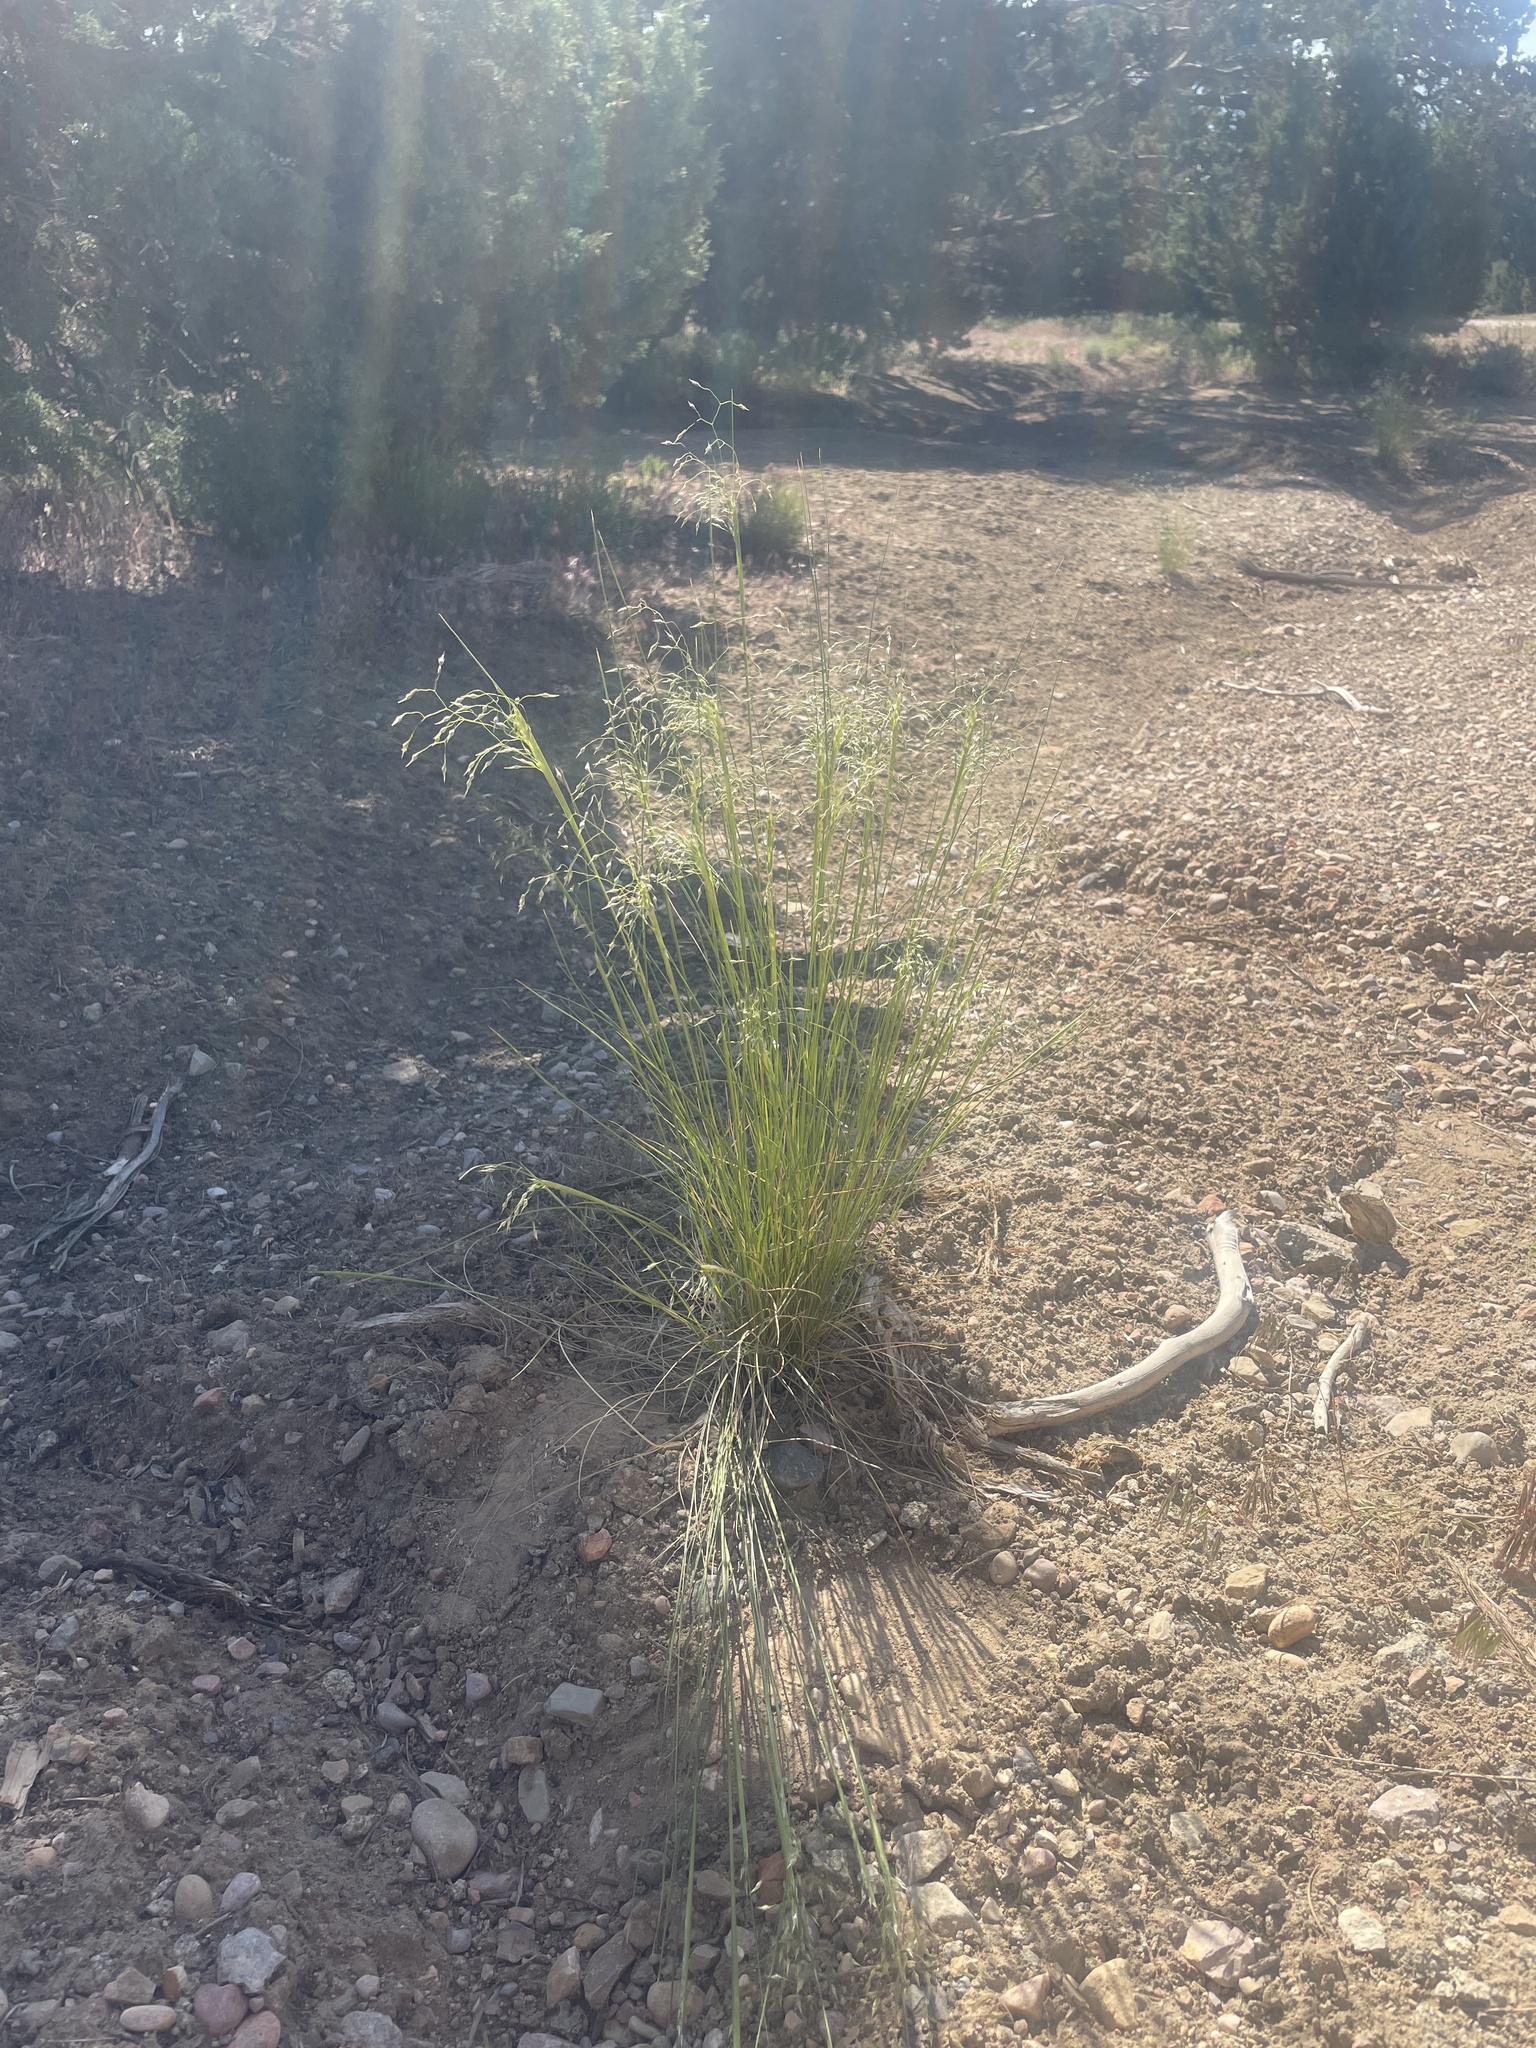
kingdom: Plantae
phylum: Tracheophyta
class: Liliopsida
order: Poales
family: Poaceae
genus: Eriocoma
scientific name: Eriocoma hymenoides
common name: Indian mountain ricegrass
